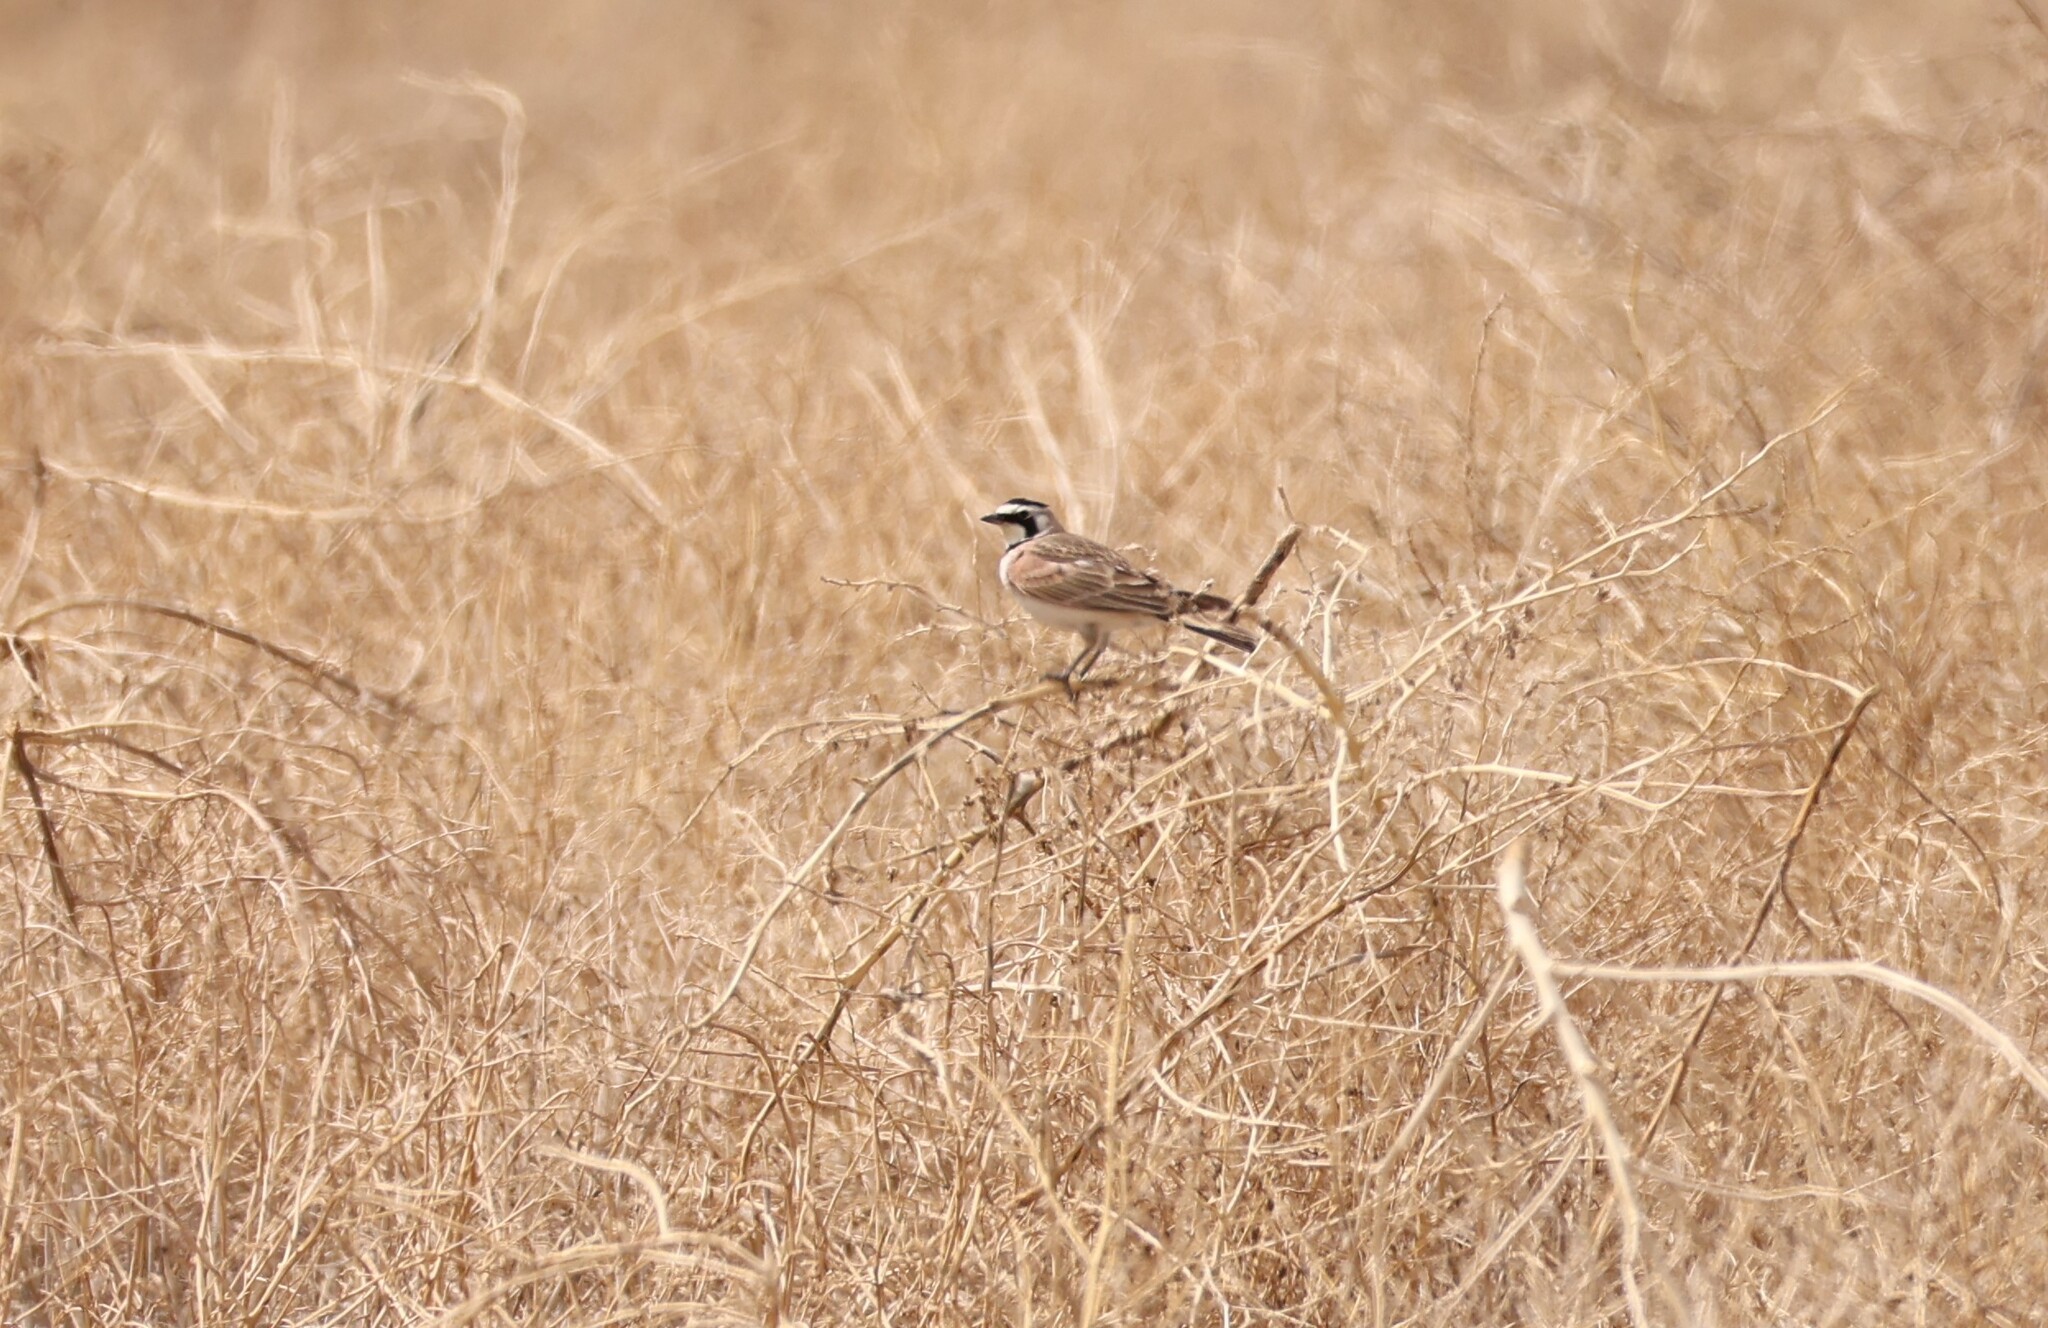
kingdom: Animalia
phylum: Chordata
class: Aves
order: Passeriformes
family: Alaudidae
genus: Eremophila
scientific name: Eremophila alpestris
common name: Horned lark
